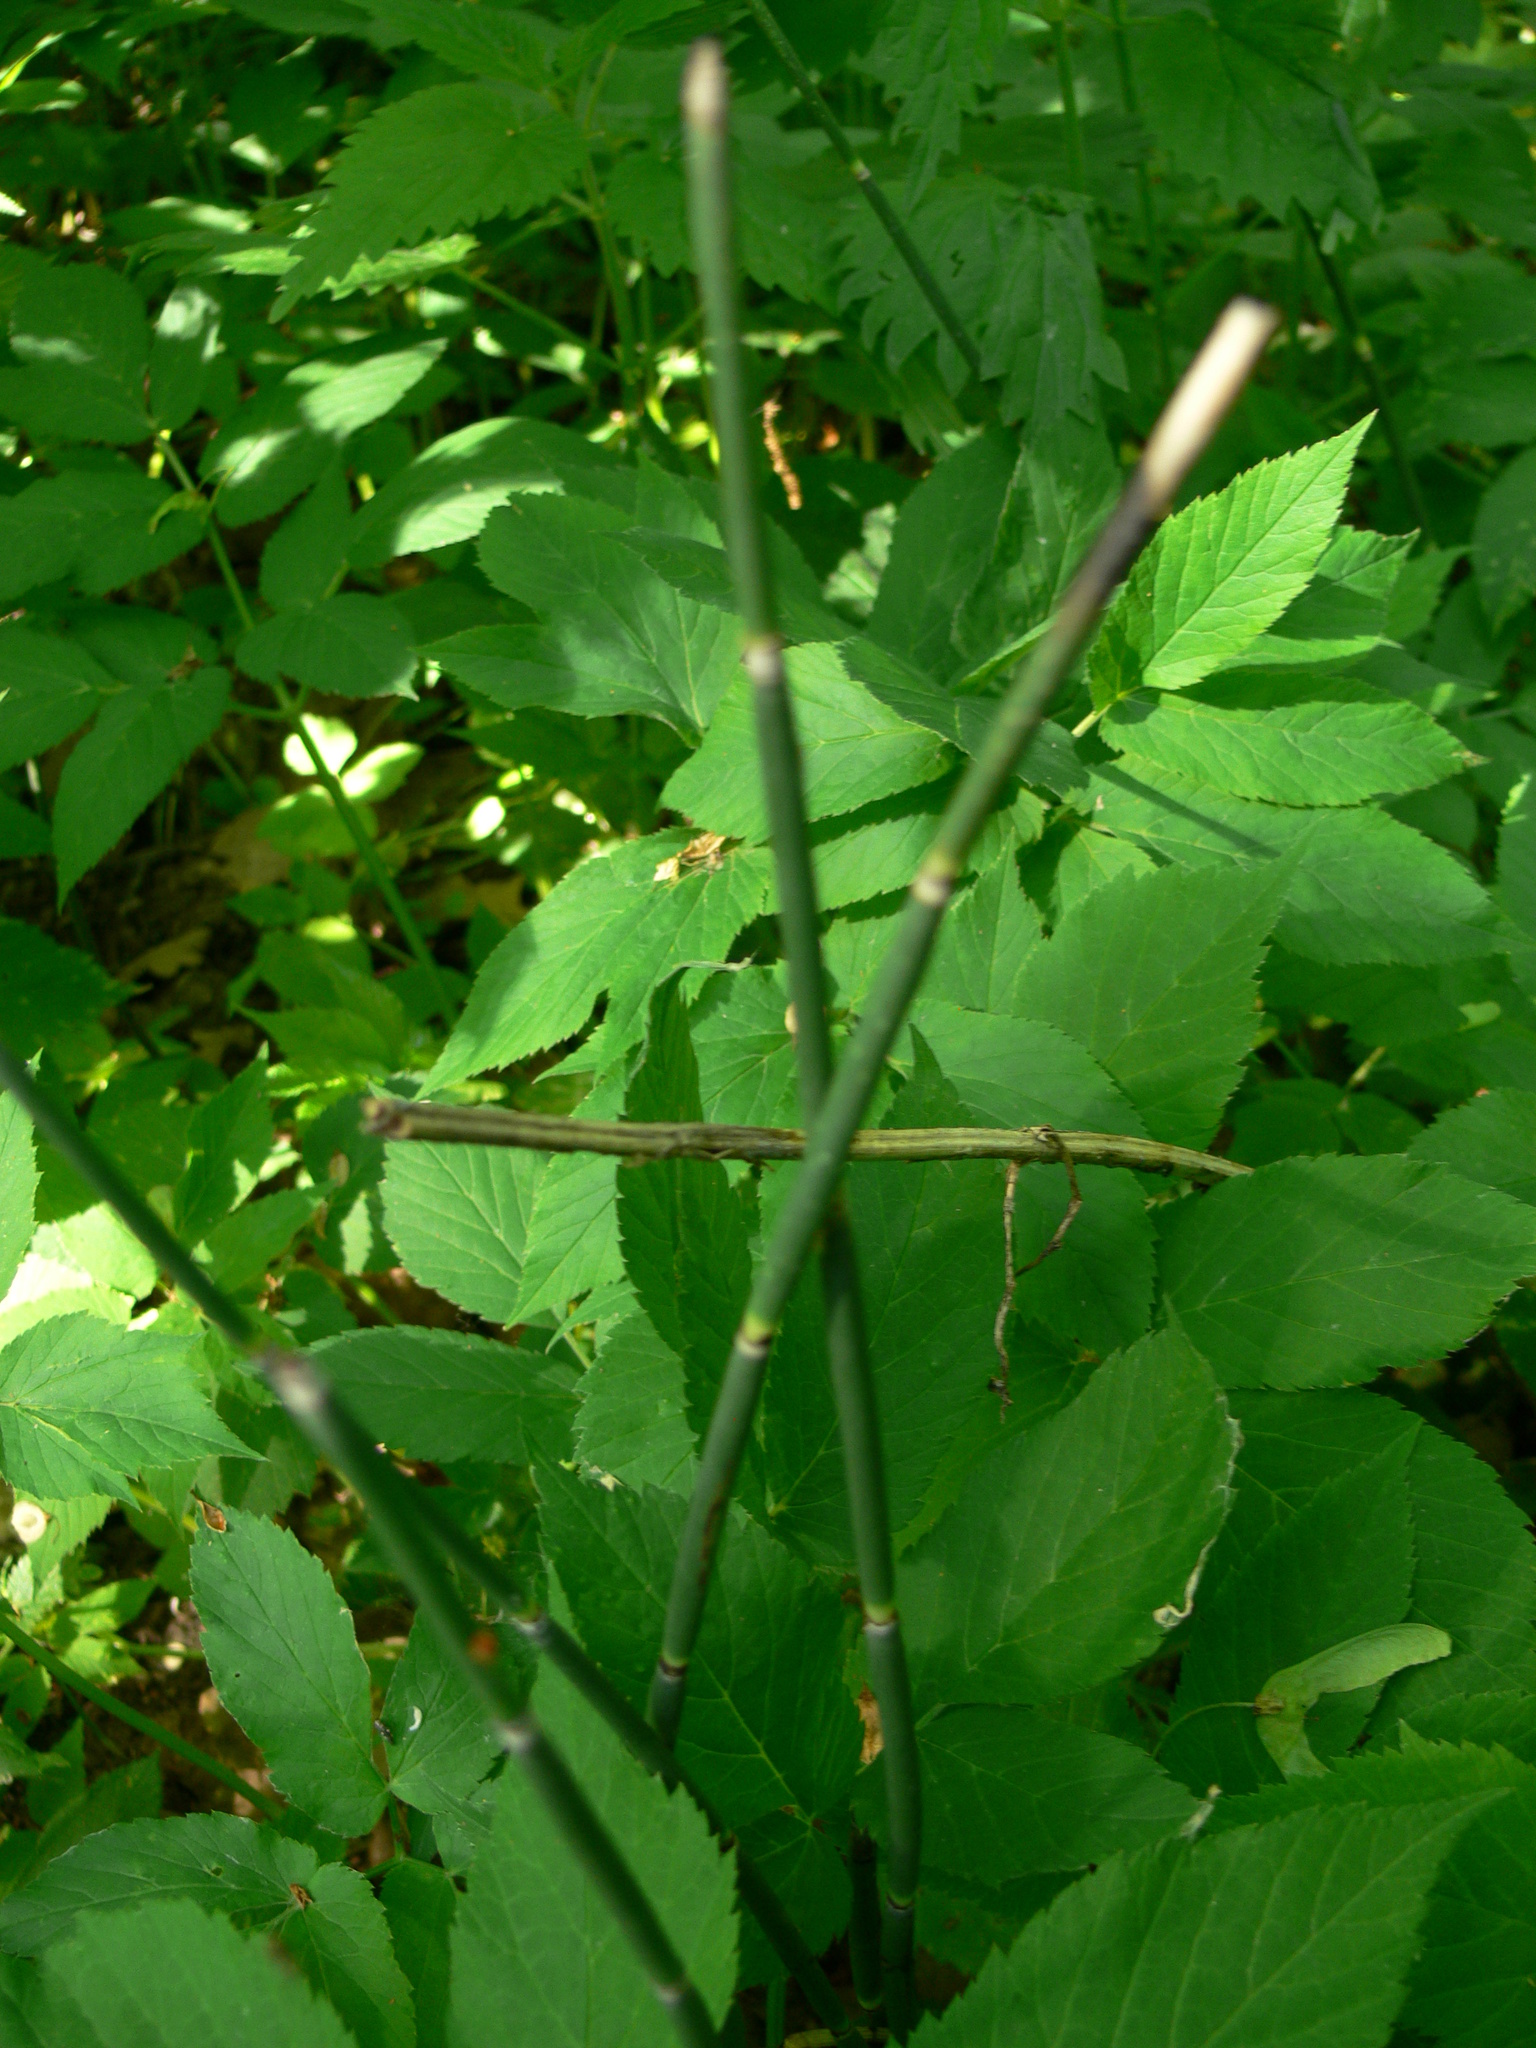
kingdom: Plantae
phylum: Tracheophyta
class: Polypodiopsida
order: Equisetales
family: Equisetaceae
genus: Equisetum
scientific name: Equisetum hyemale
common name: Rough horsetail
